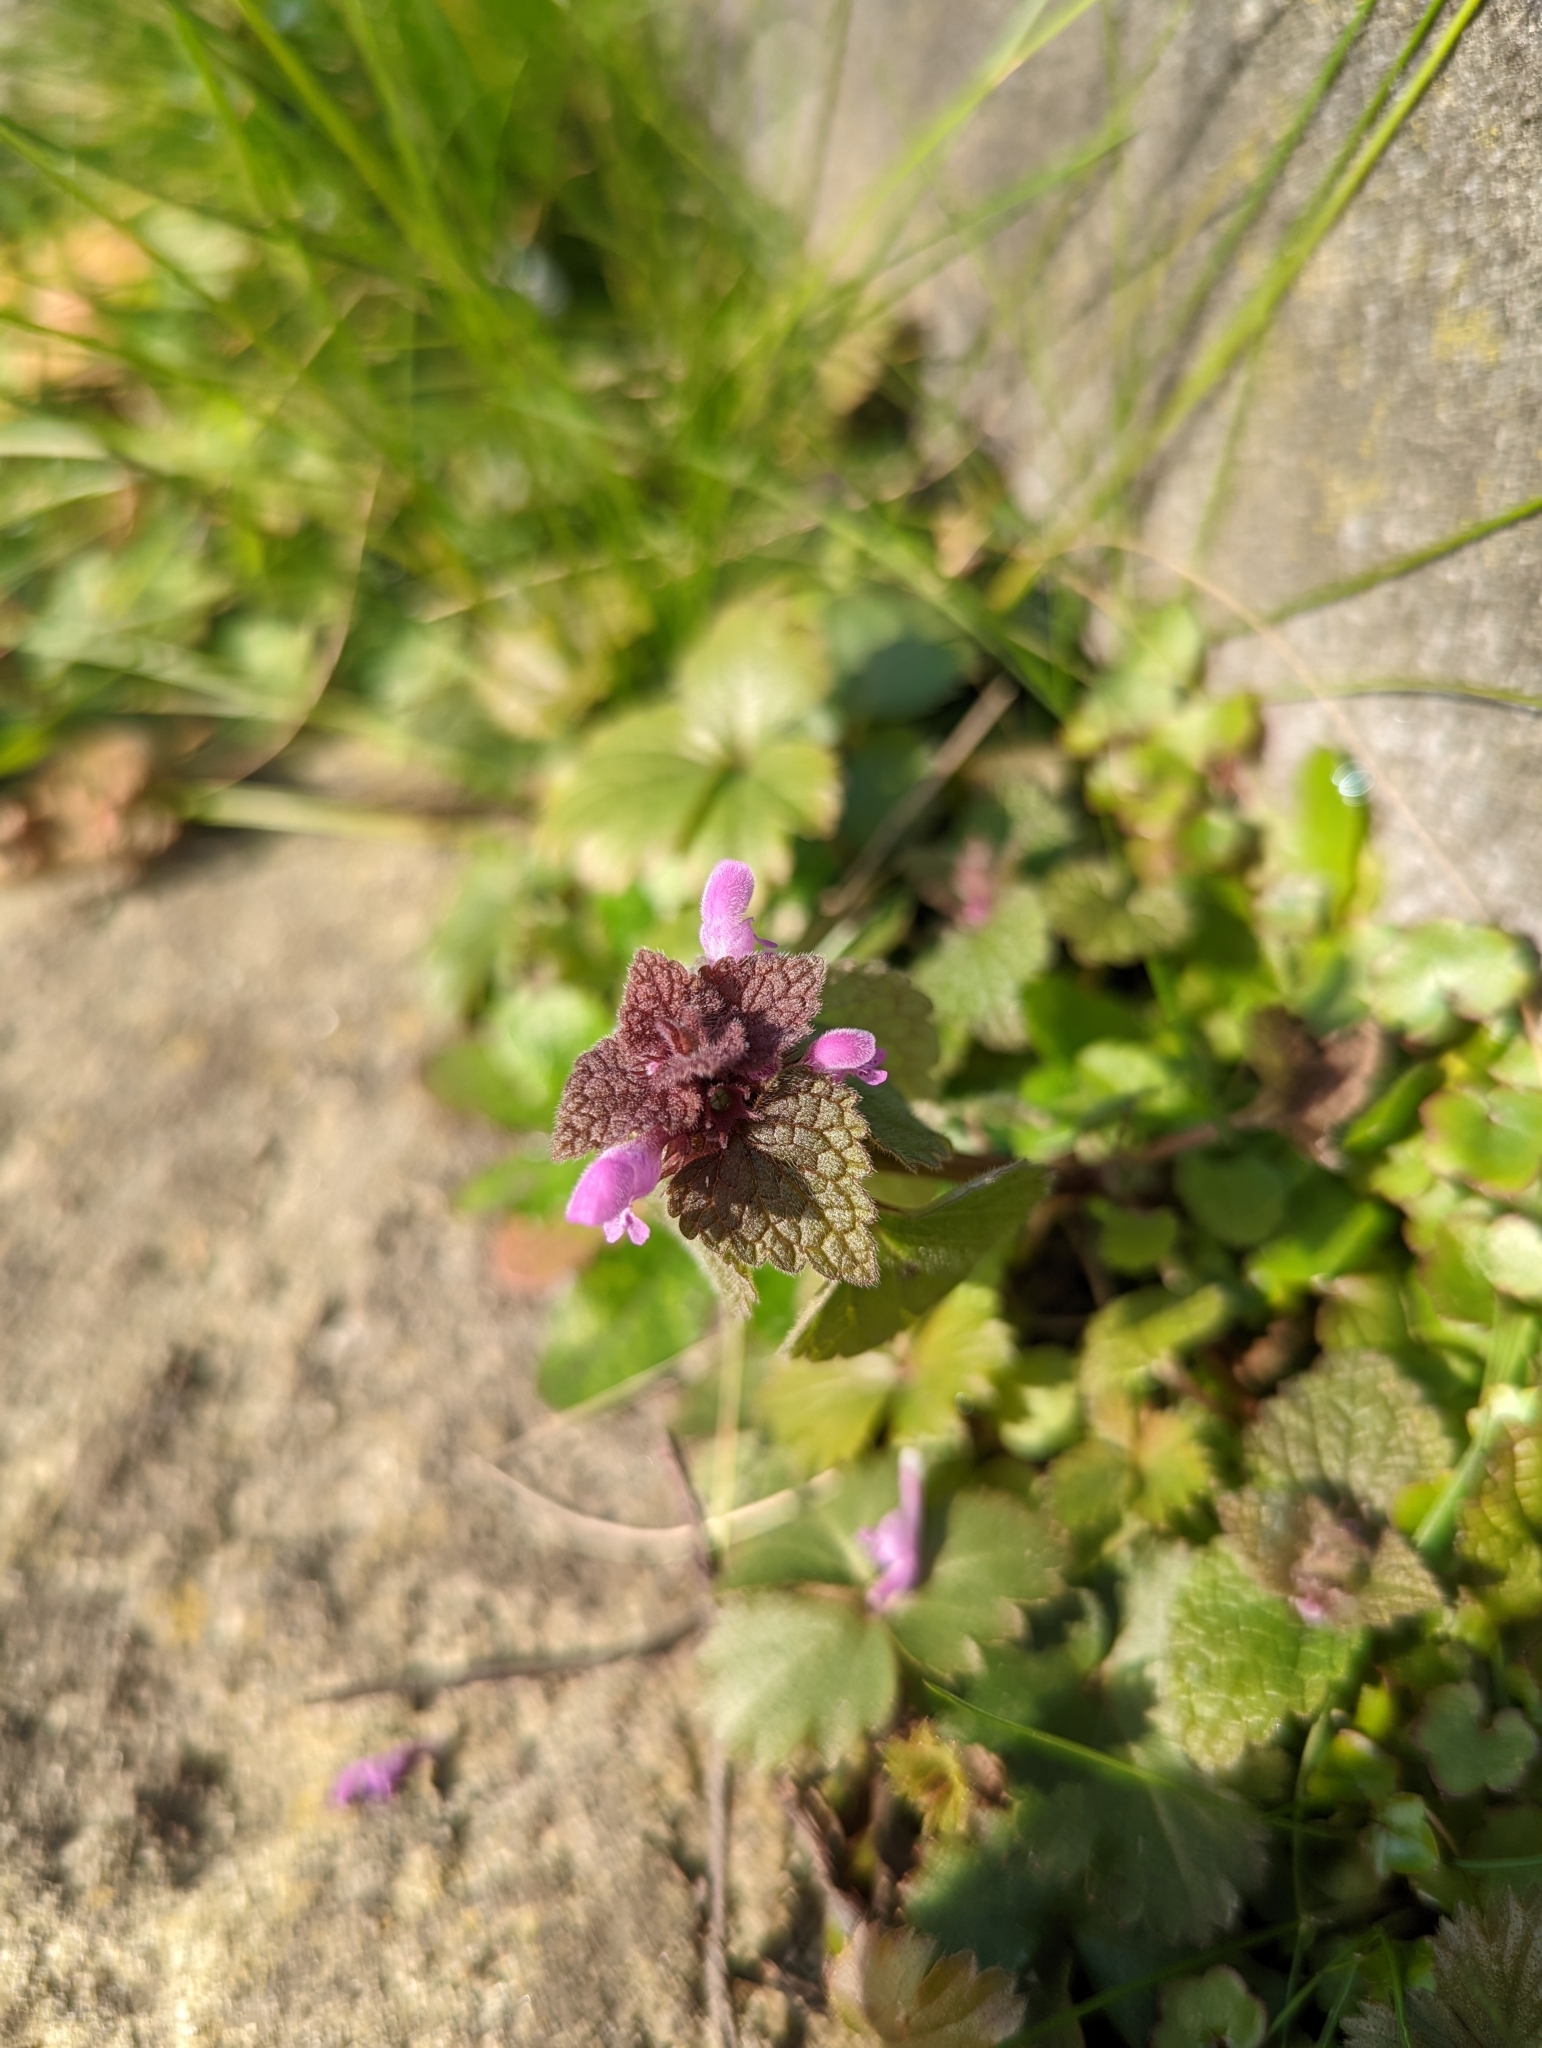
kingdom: Plantae
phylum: Tracheophyta
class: Magnoliopsida
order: Lamiales
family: Lamiaceae
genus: Lamium
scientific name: Lamium purpureum
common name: Red dead-nettle
